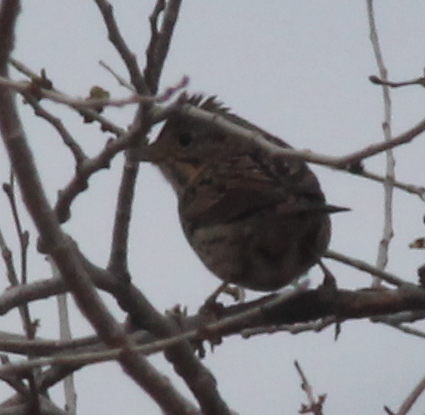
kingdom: Animalia
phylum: Chordata
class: Aves
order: Passeriformes
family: Passerellidae
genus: Melospiza
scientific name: Melospiza lincolnii
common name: Lincoln's sparrow
